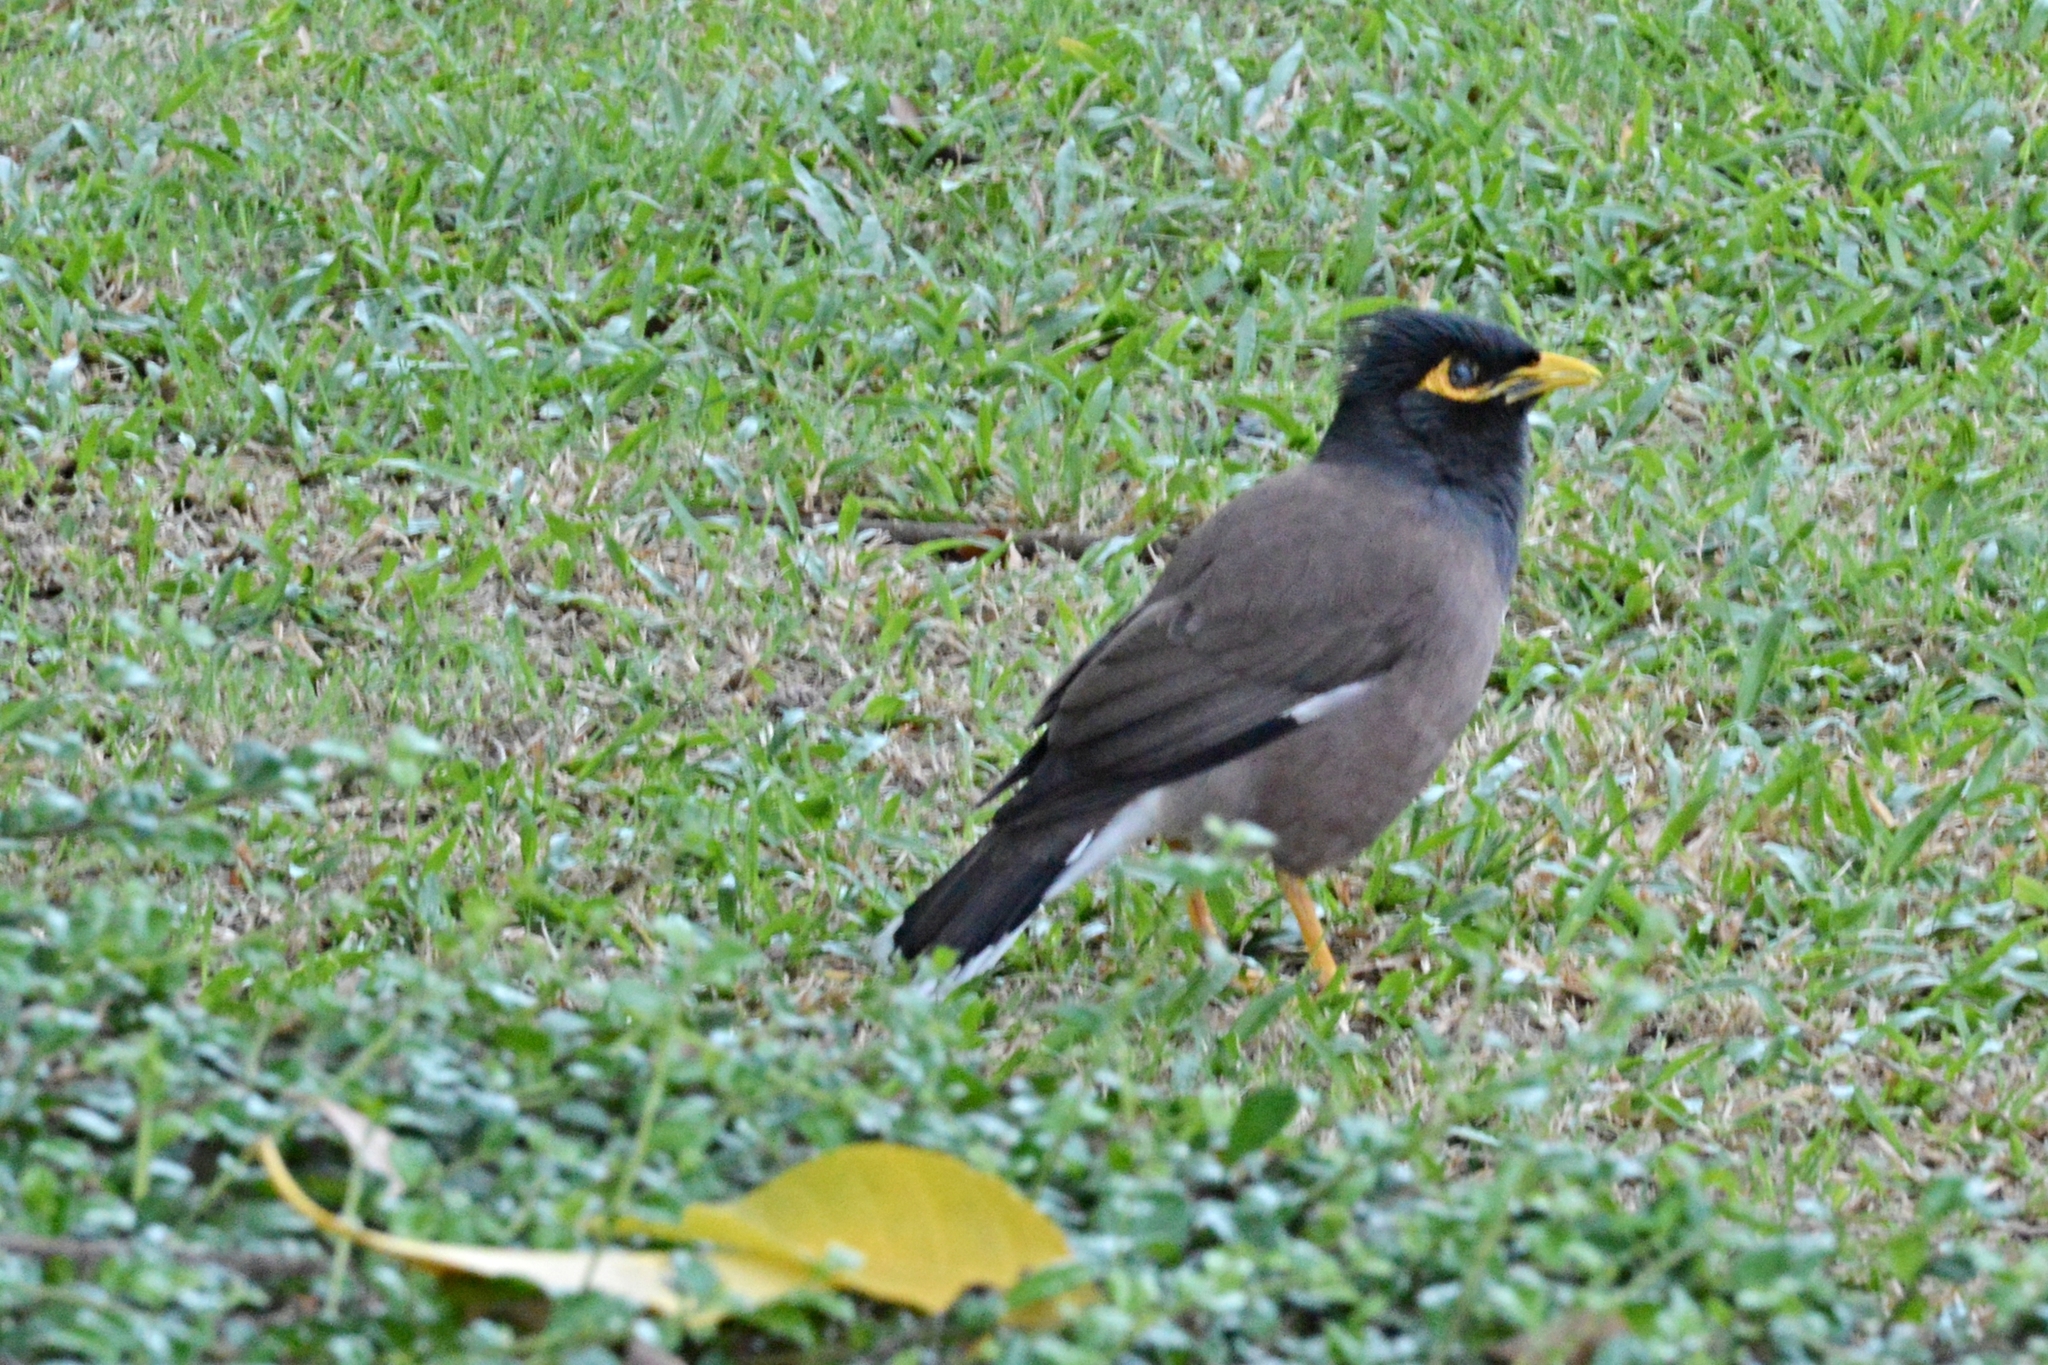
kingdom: Animalia
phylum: Chordata
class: Aves
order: Passeriformes
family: Sturnidae
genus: Acridotheres
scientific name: Acridotheres tristis
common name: Common myna
